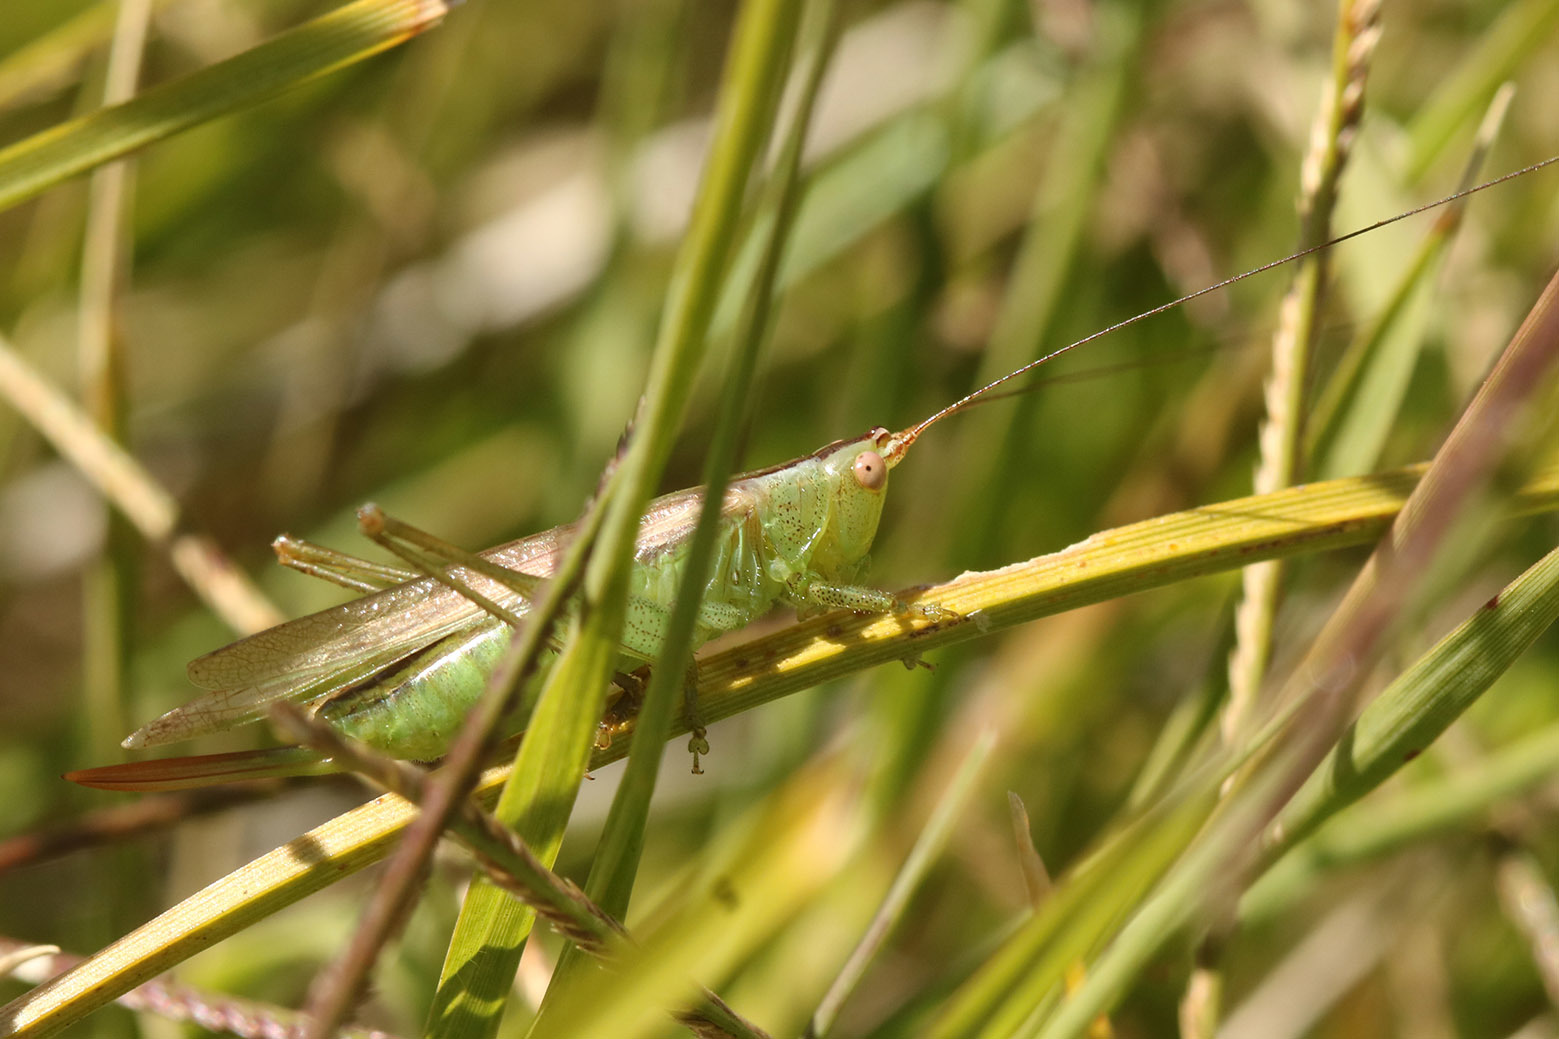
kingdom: Animalia
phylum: Arthropoda
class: Insecta
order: Orthoptera
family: Tettigoniidae
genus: Conocephalus
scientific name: Conocephalus longipes
